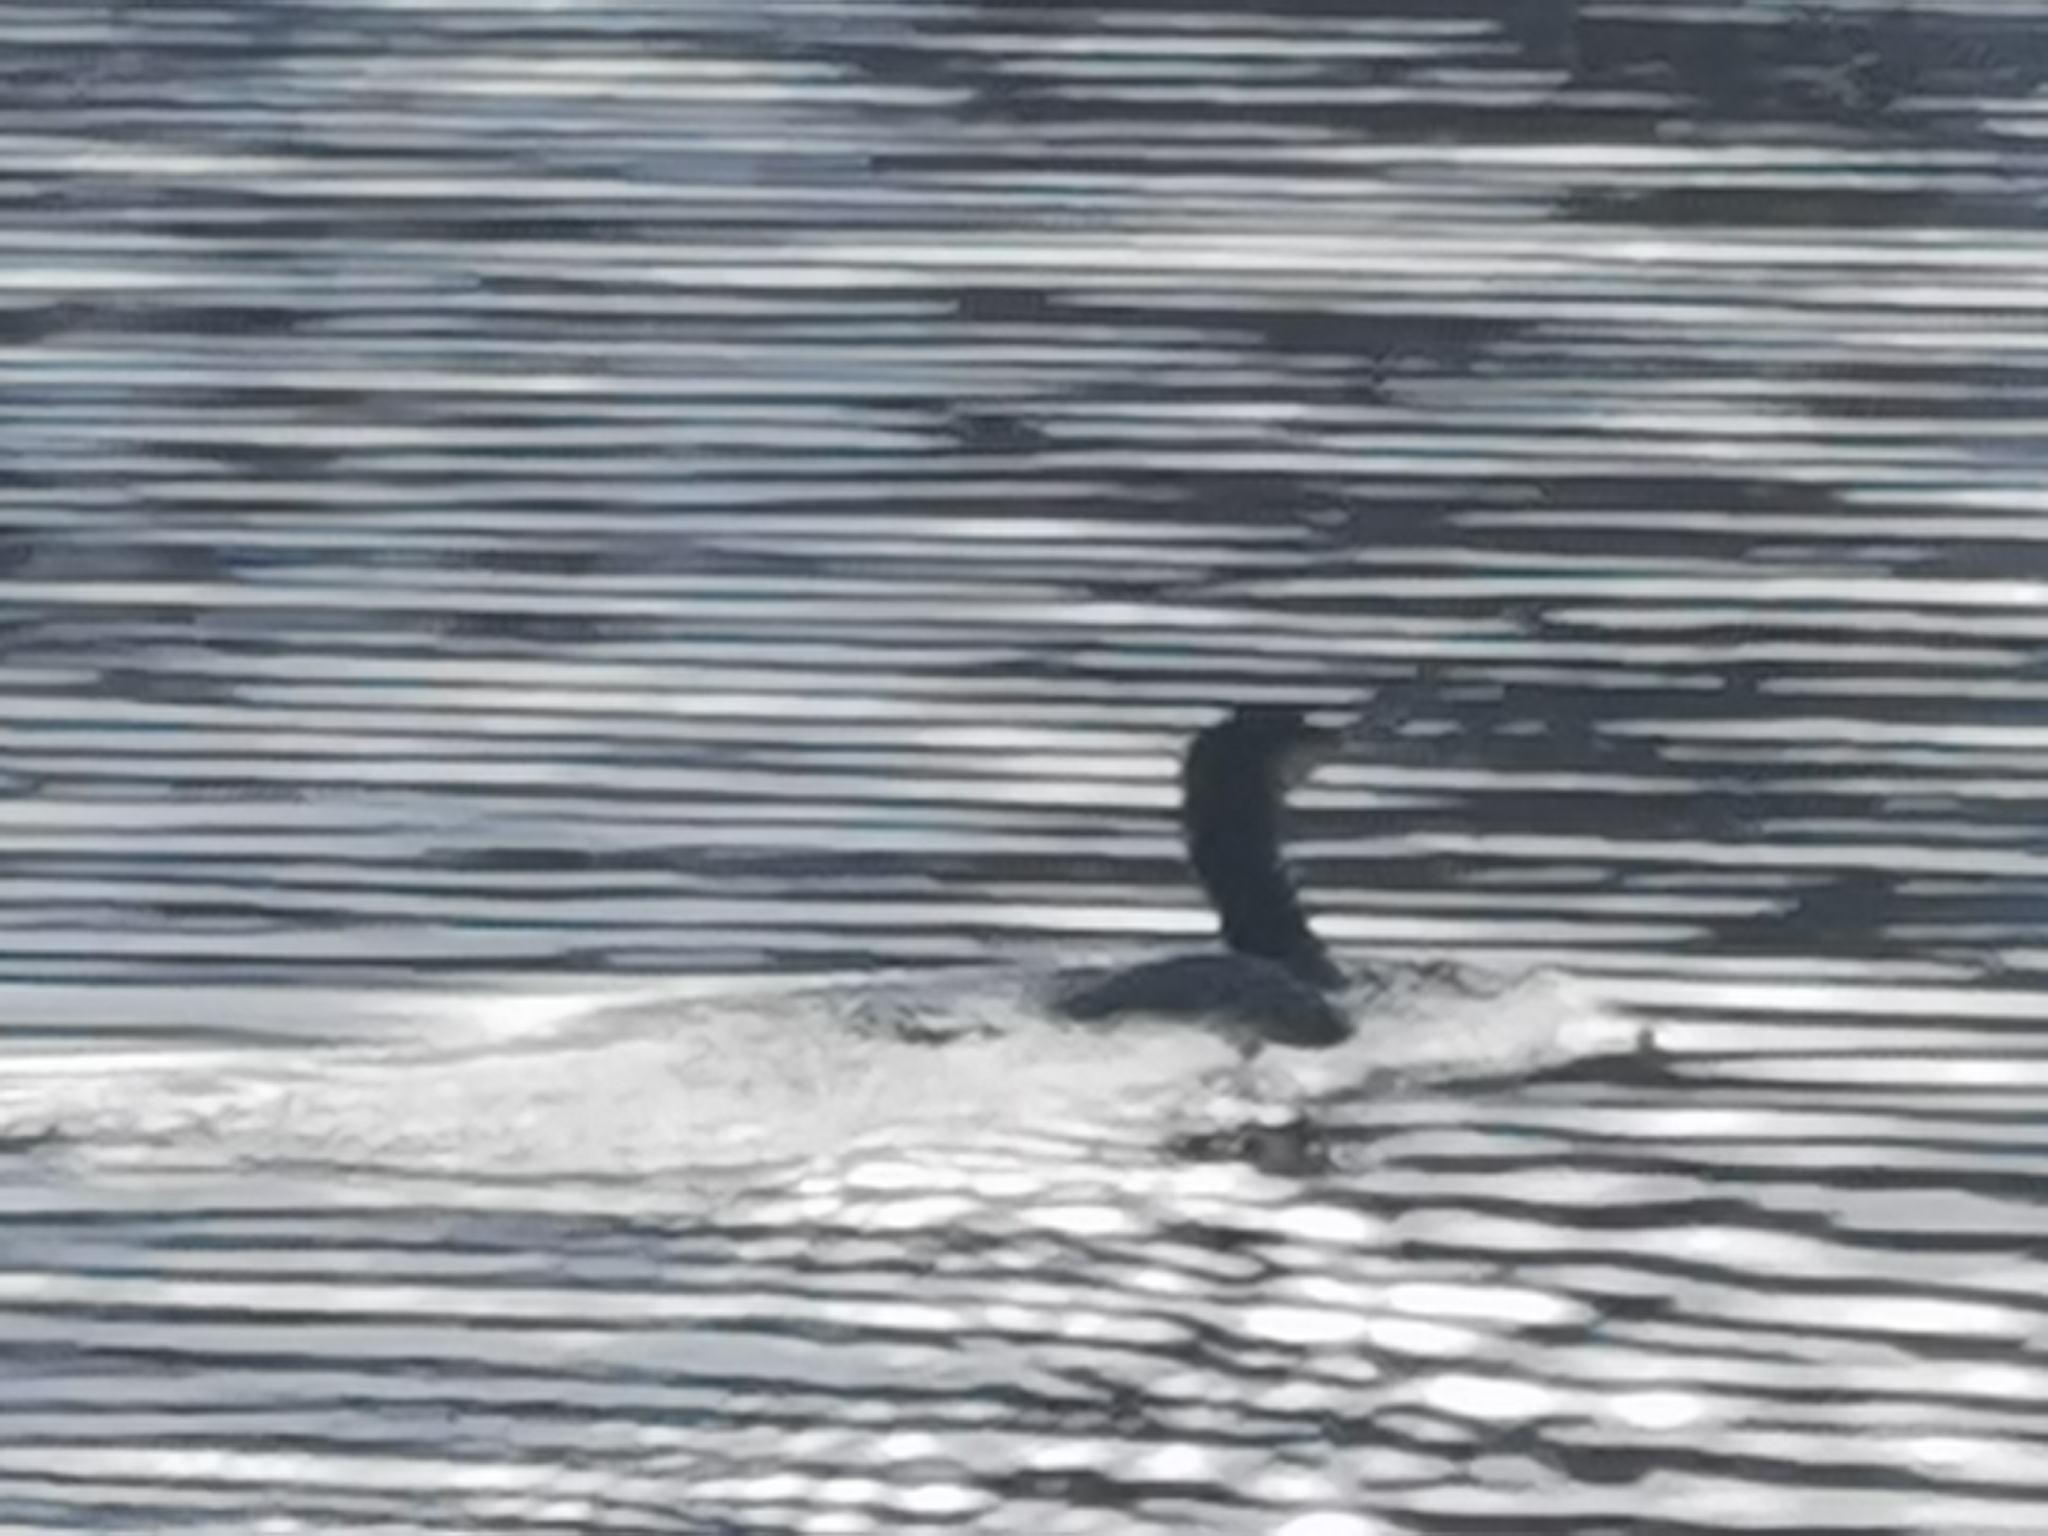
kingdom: Animalia
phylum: Chordata
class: Aves
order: Suliformes
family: Phalacrocoracidae
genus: Phalacrocorax
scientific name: Phalacrocorax carbo
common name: Great cormorant
